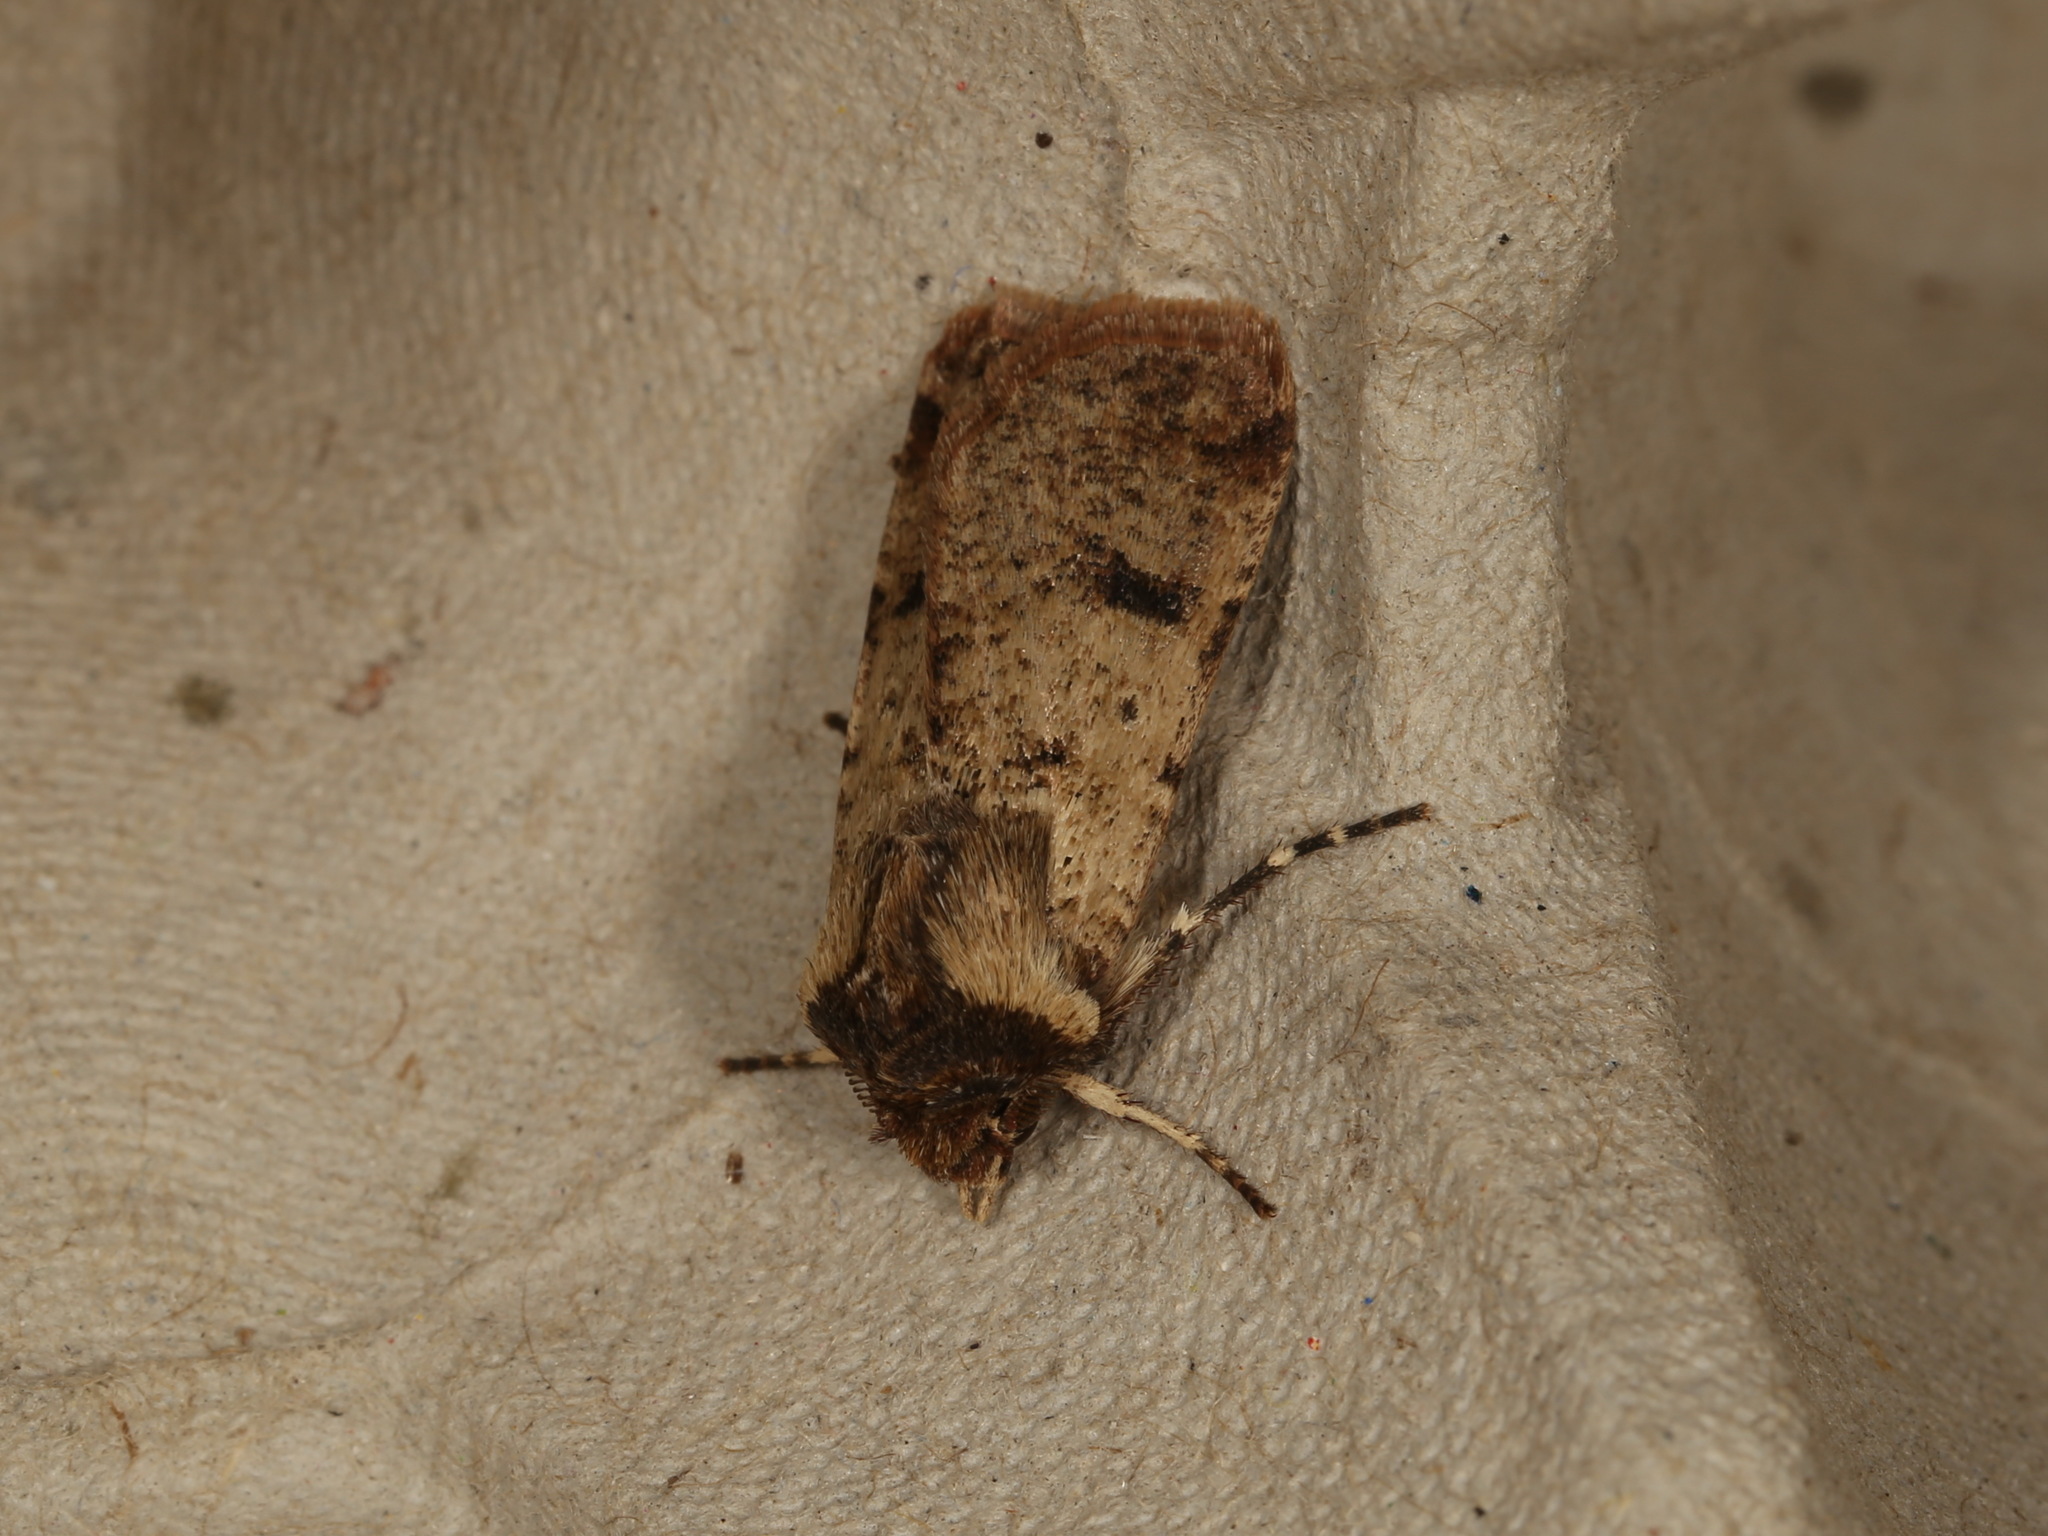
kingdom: Animalia
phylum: Arthropoda
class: Insecta
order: Lepidoptera
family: Noctuidae
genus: Agrotis
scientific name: Agrotis porphyricollis
